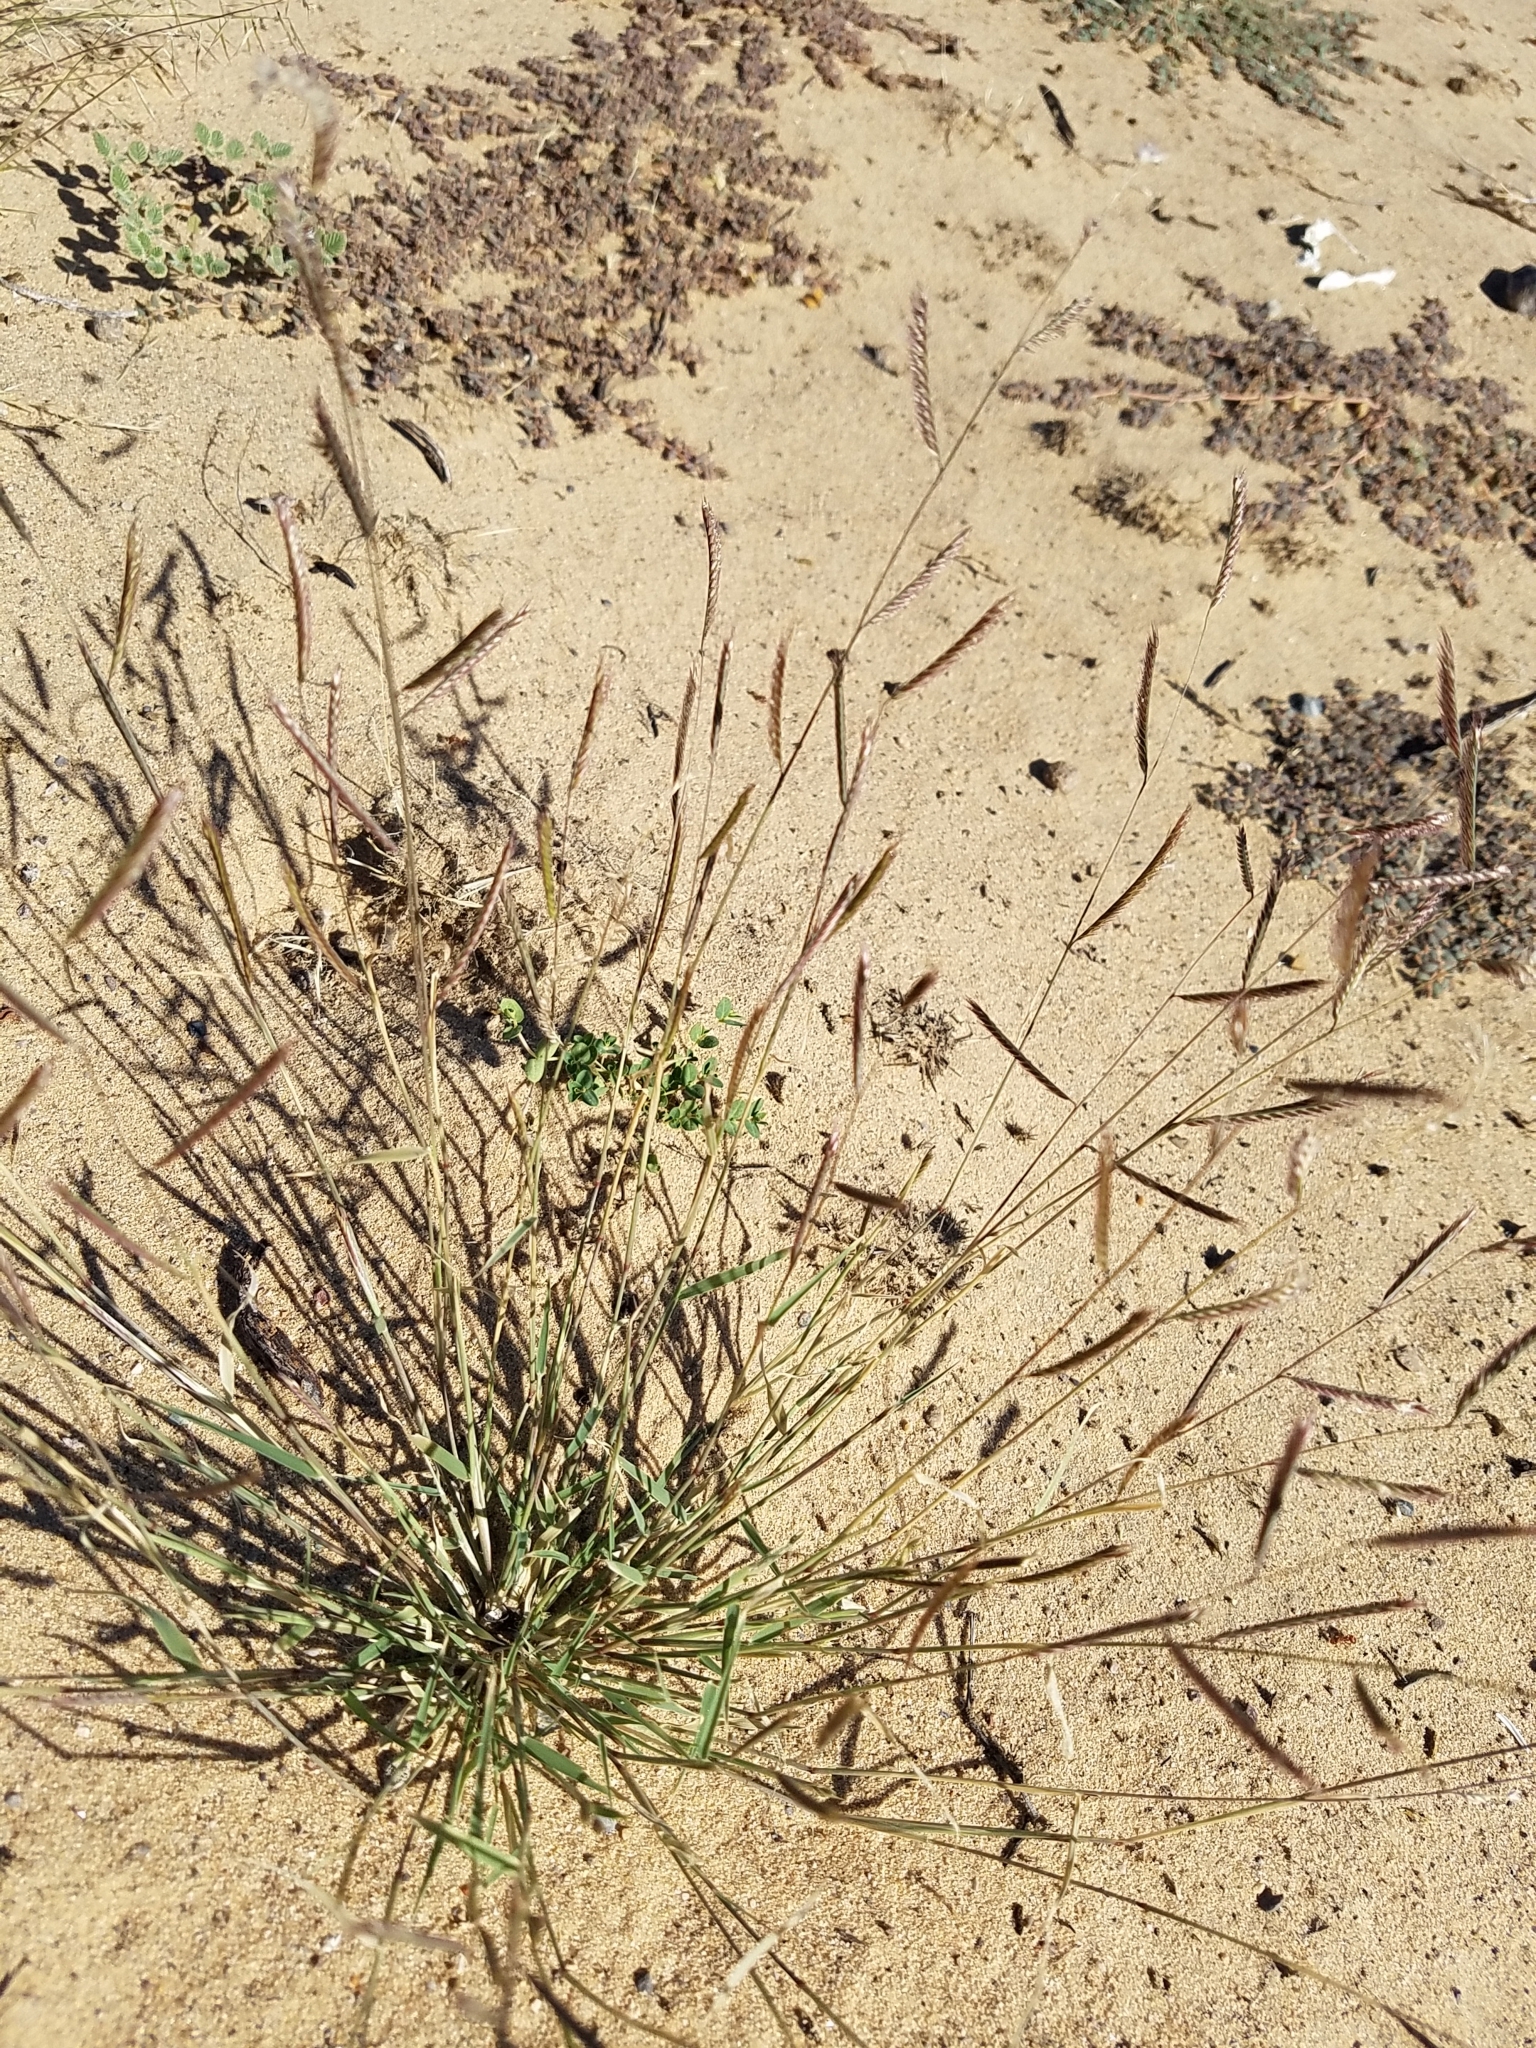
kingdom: Plantae
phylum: Tracheophyta
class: Liliopsida
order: Poales
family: Poaceae
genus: Bouteloua
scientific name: Bouteloua barbata
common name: Six-weeks grama
